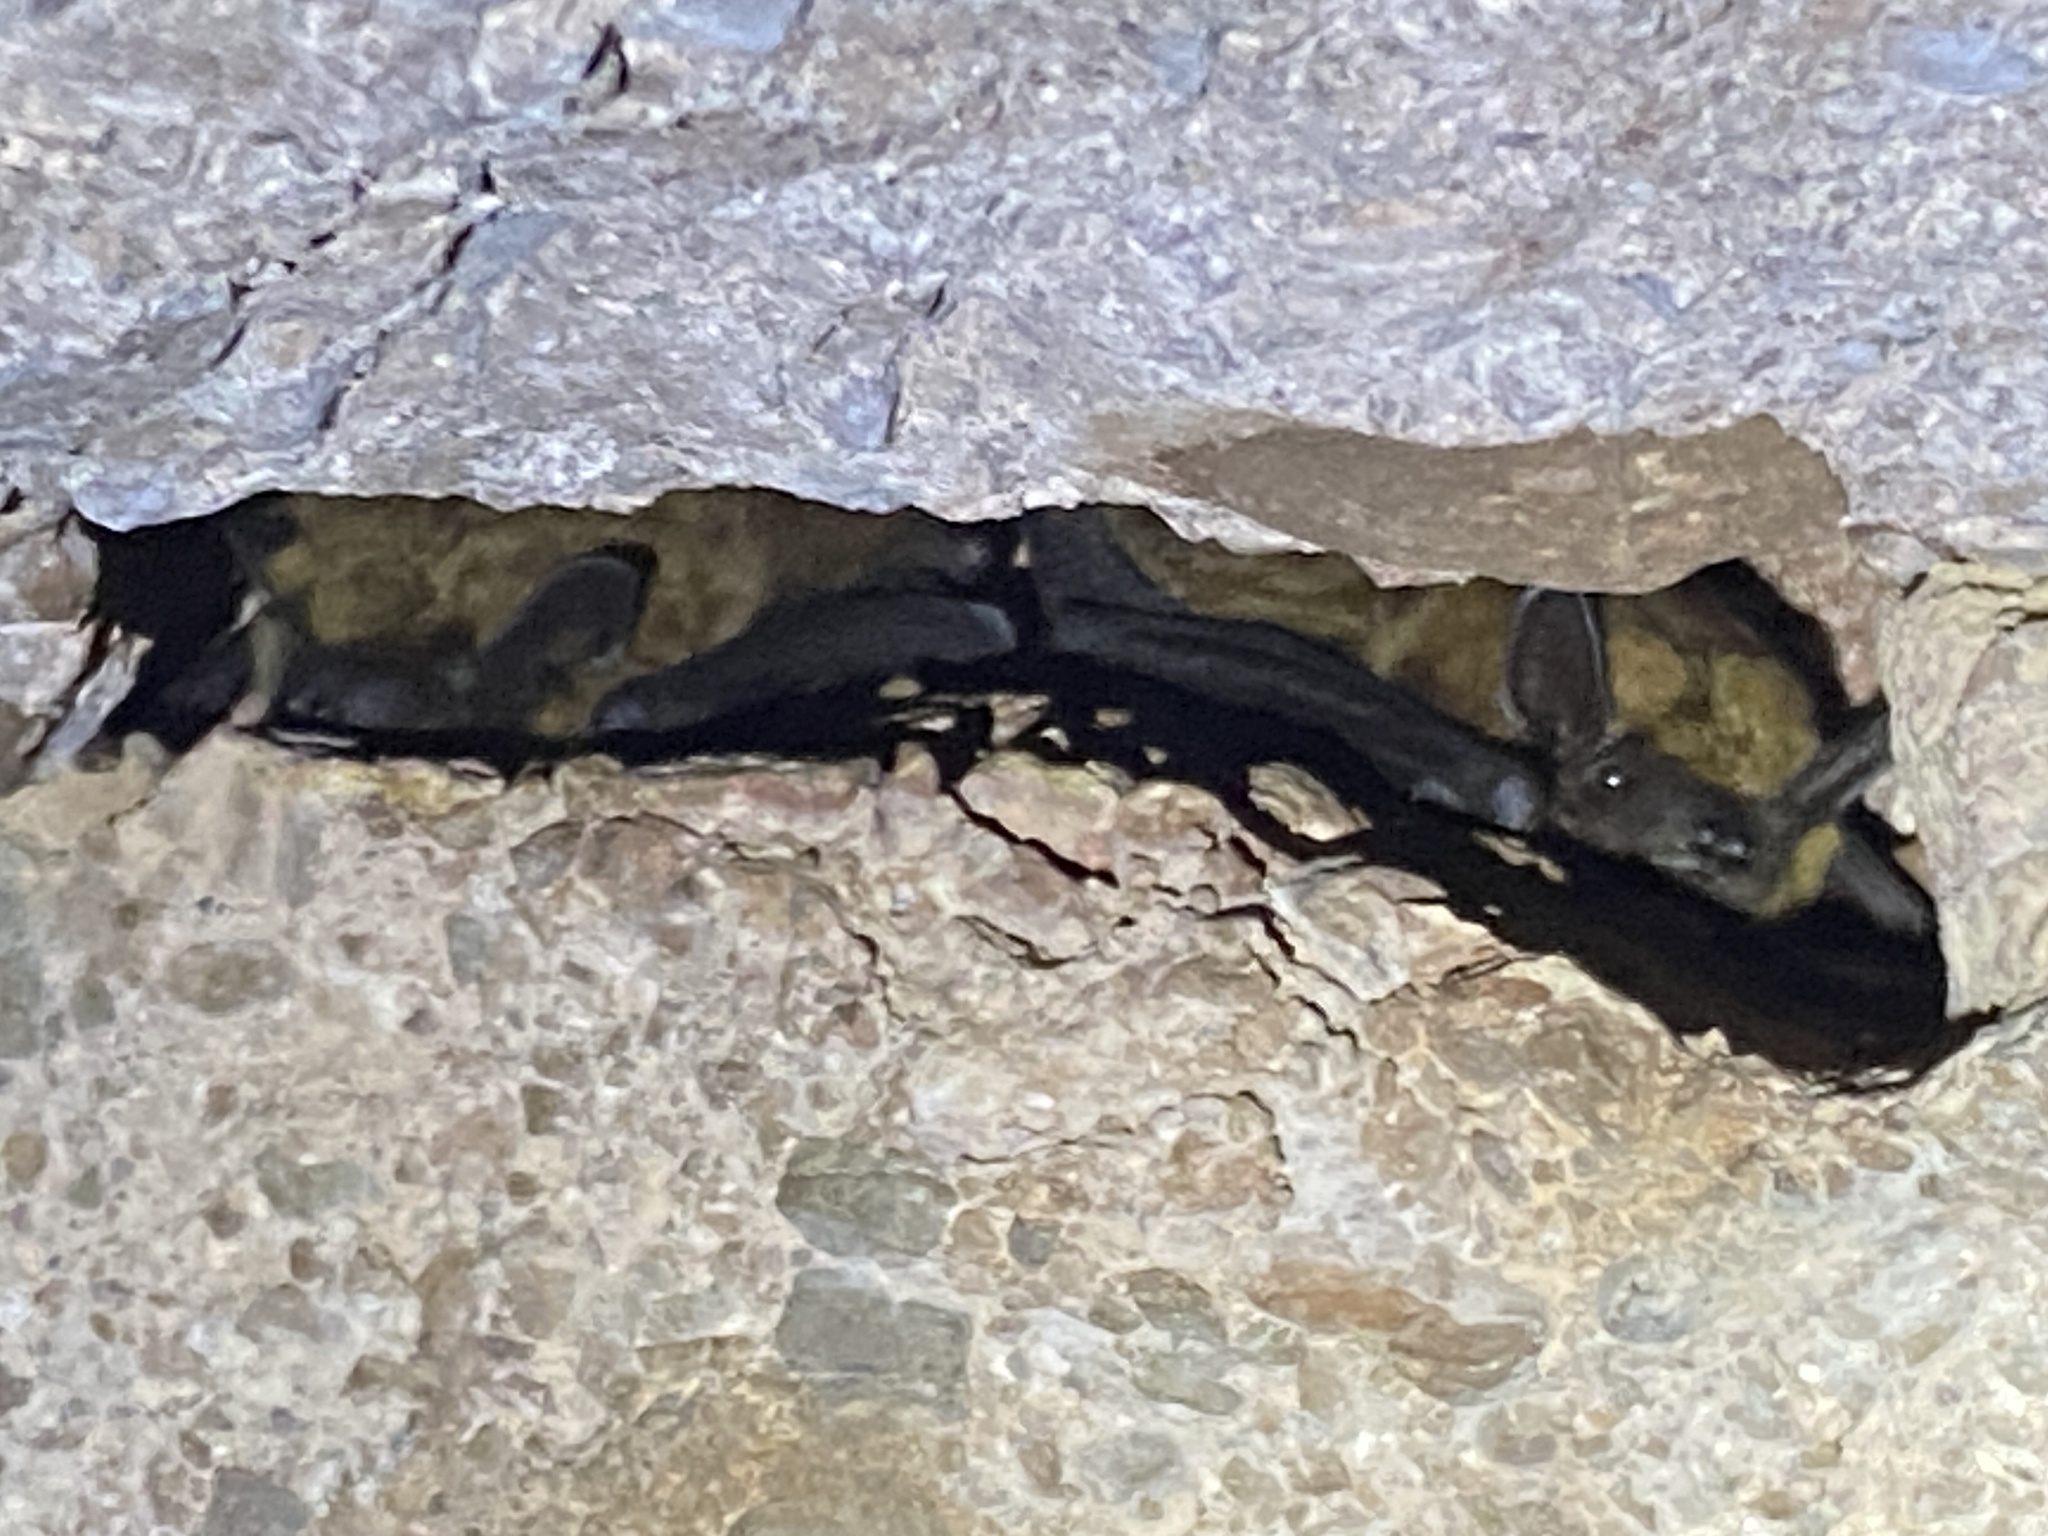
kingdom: Animalia
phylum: Chordata
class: Mammalia
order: Chiroptera
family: Vespertilionidae
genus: Eptesicus
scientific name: Eptesicus fuscus
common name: Big brown bat
